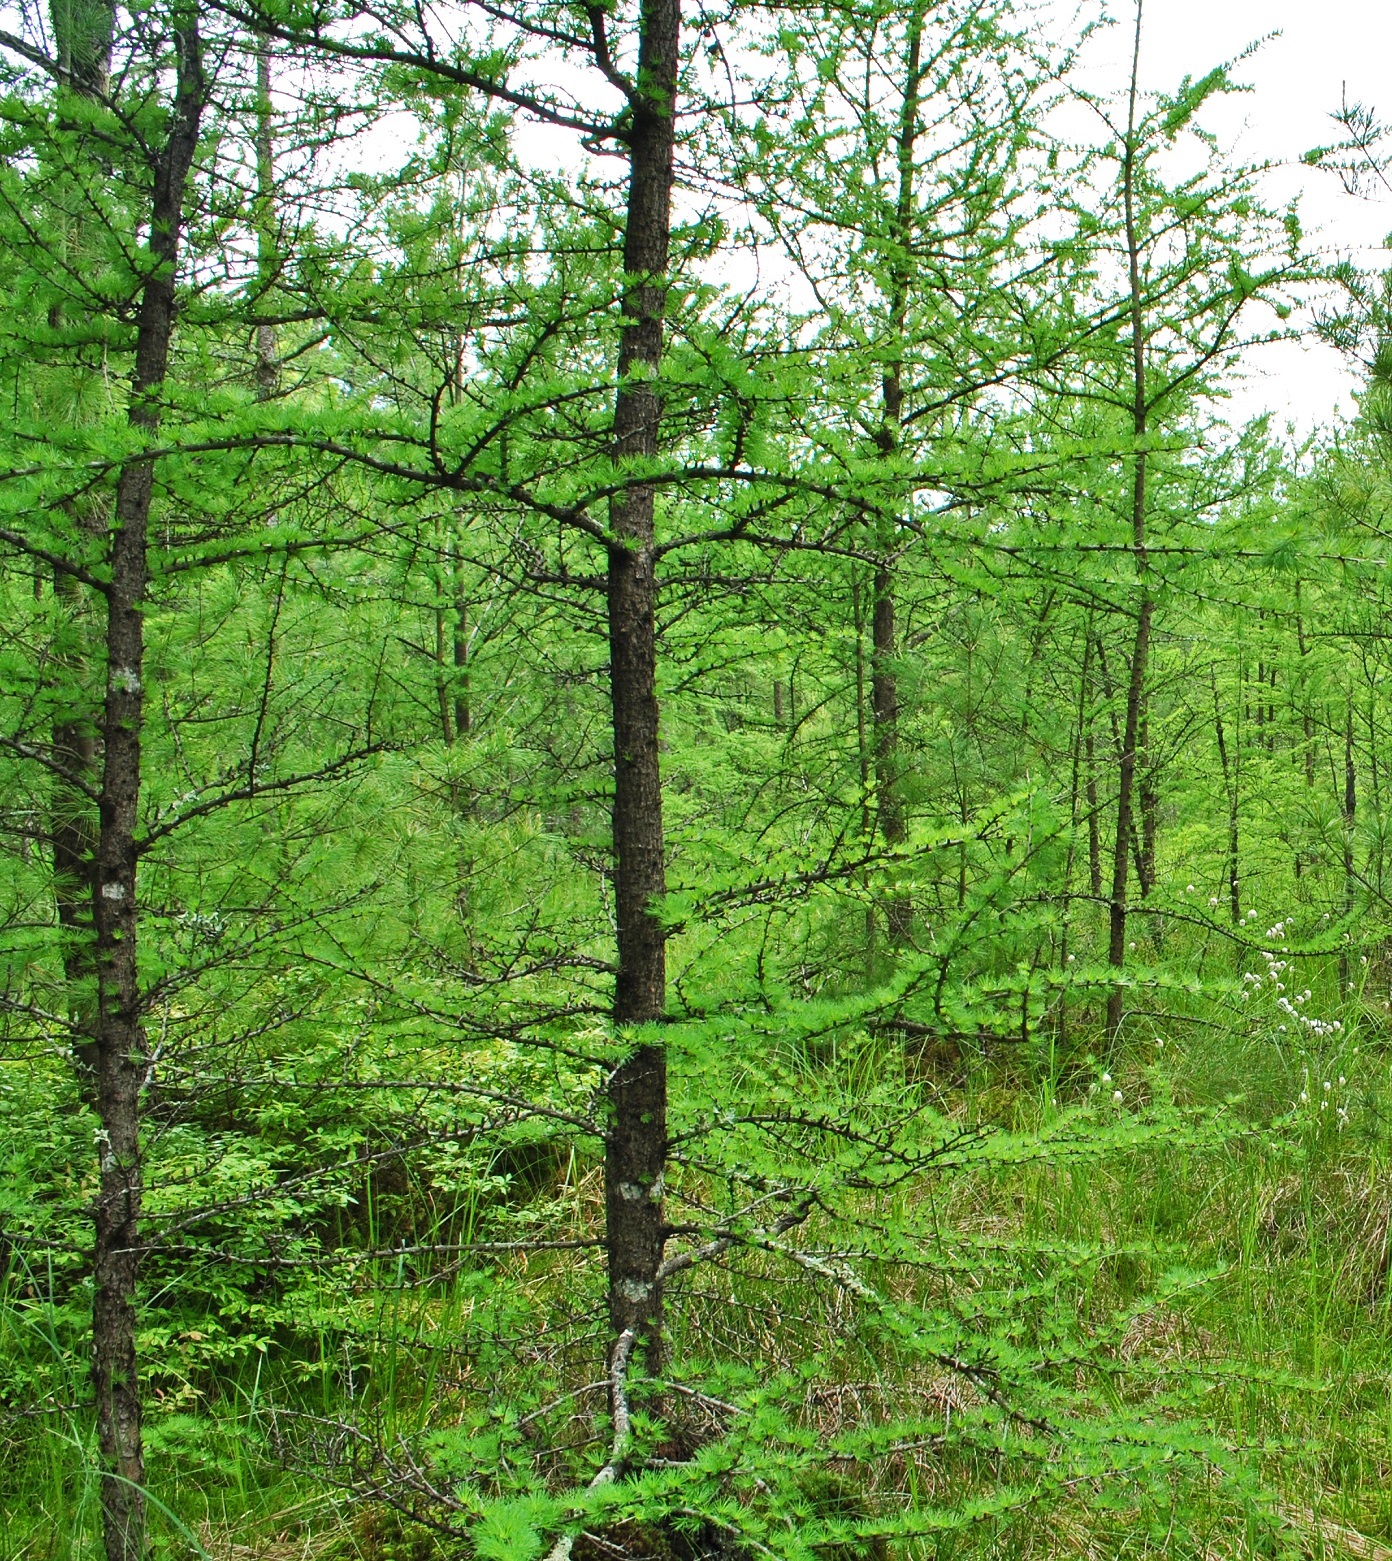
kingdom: Plantae
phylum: Tracheophyta
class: Pinopsida
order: Pinales
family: Pinaceae
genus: Larix
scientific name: Larix laricina
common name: American larch
